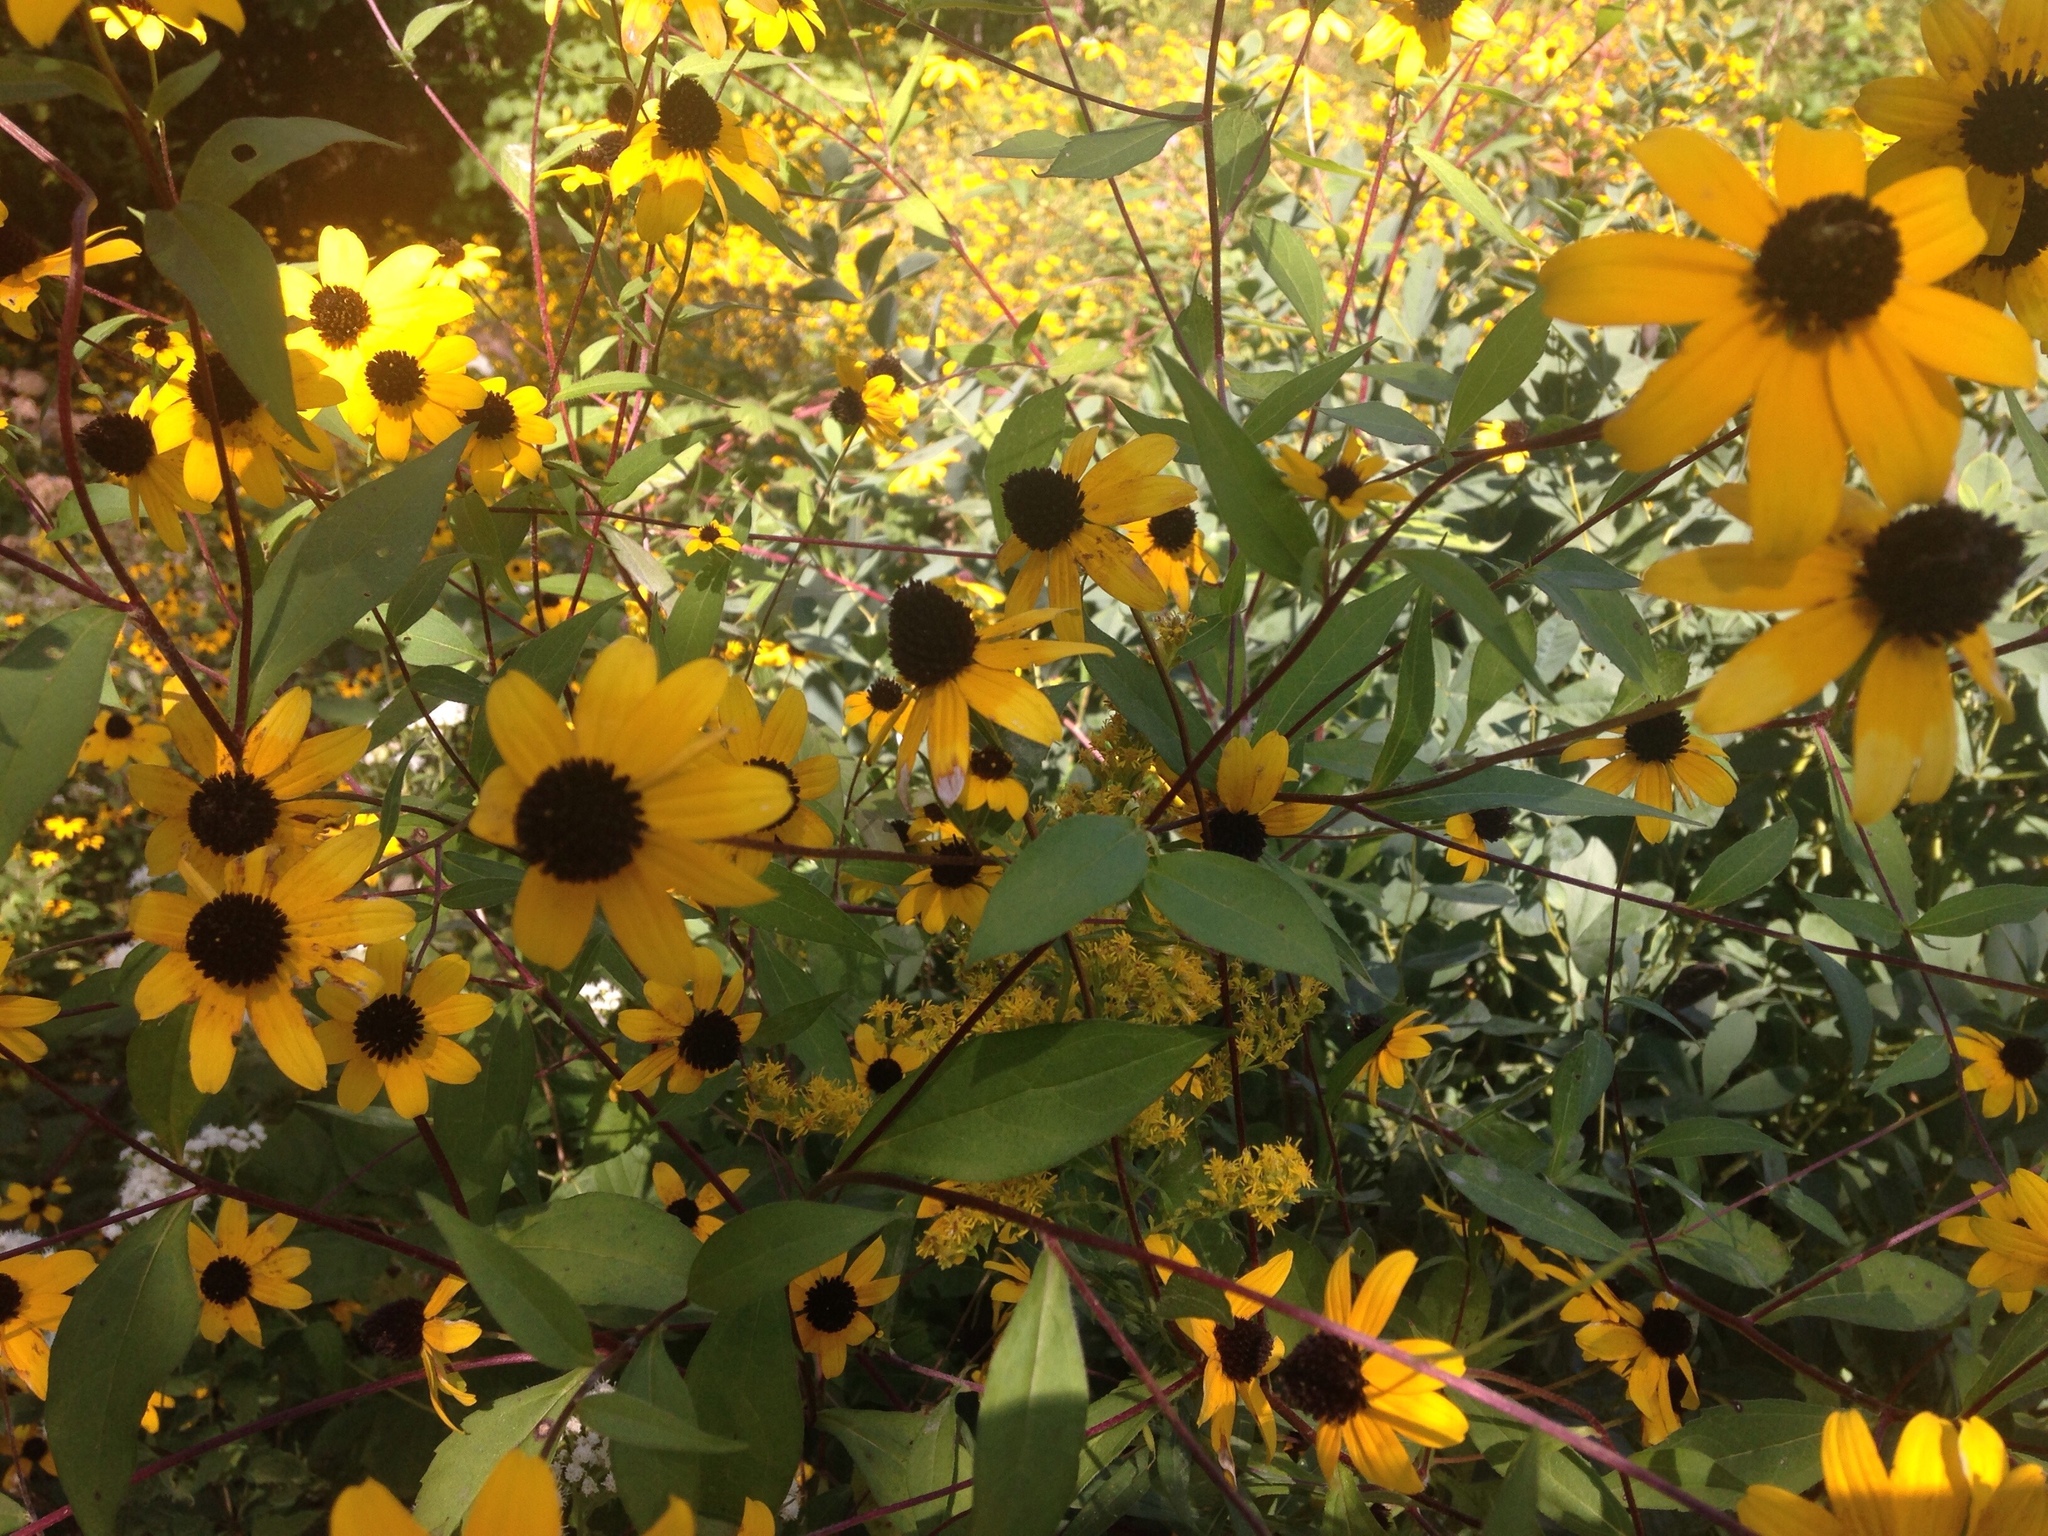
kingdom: Plantae
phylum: Tracheophyta
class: Magnoliopsida
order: Asterales
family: Asteraceae
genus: Rudbeckia
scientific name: Rudbeckia triloba
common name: Thin-leaved coneflower
